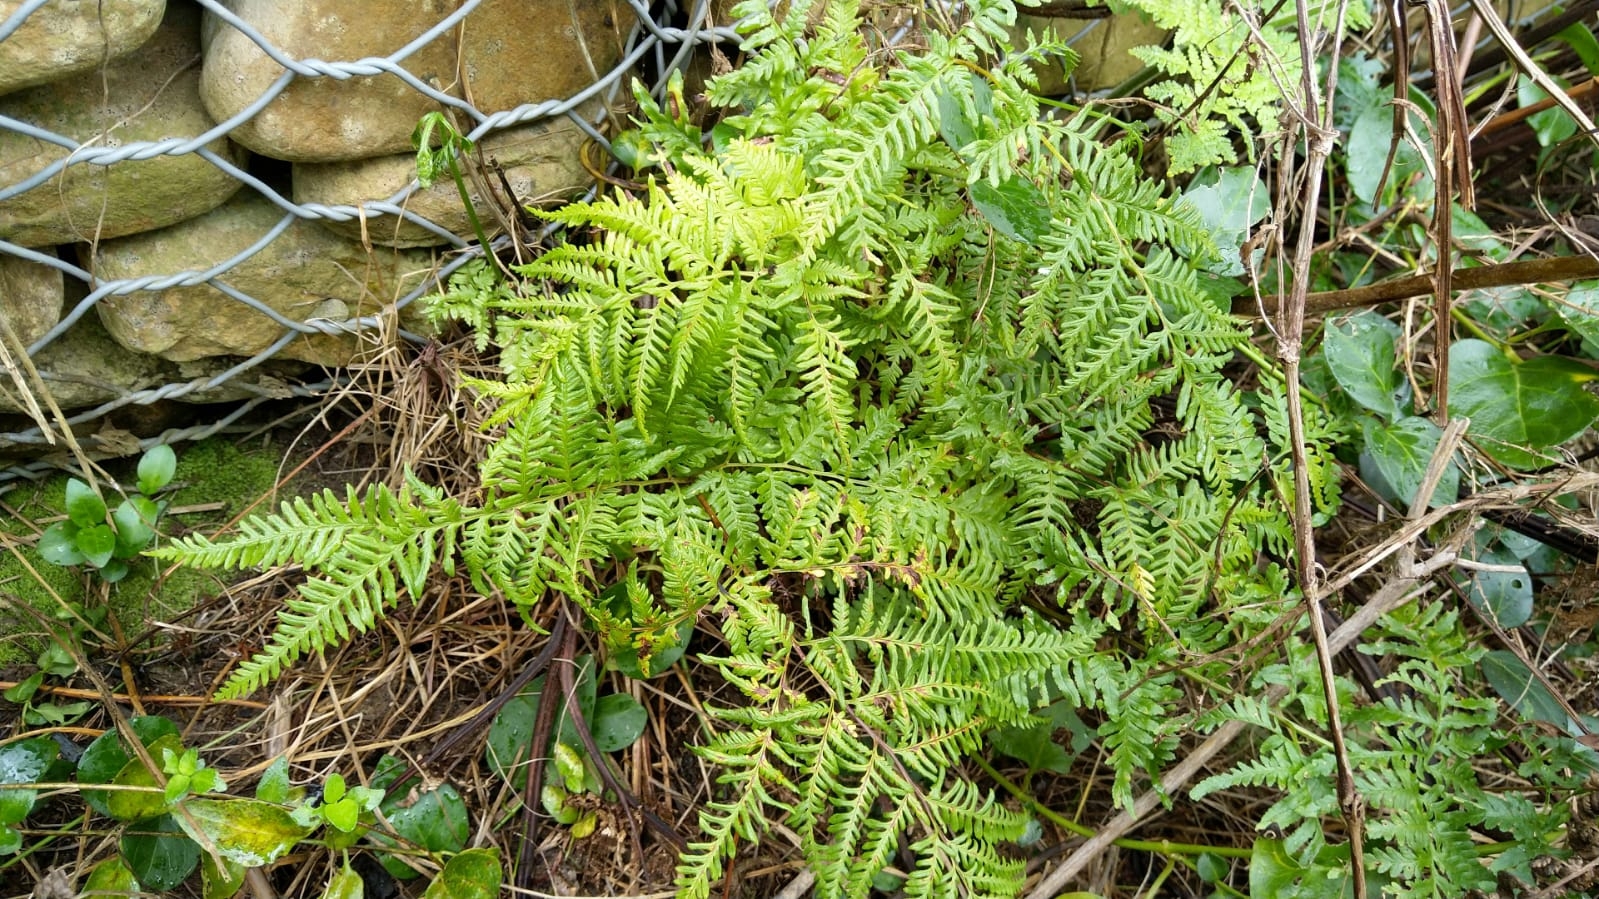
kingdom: Plantae
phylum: Tracheophyta
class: Polypodiopsida
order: Polypodiales
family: Pteridaceae
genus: Pteris
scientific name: Pteris tremula
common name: Australian brake
